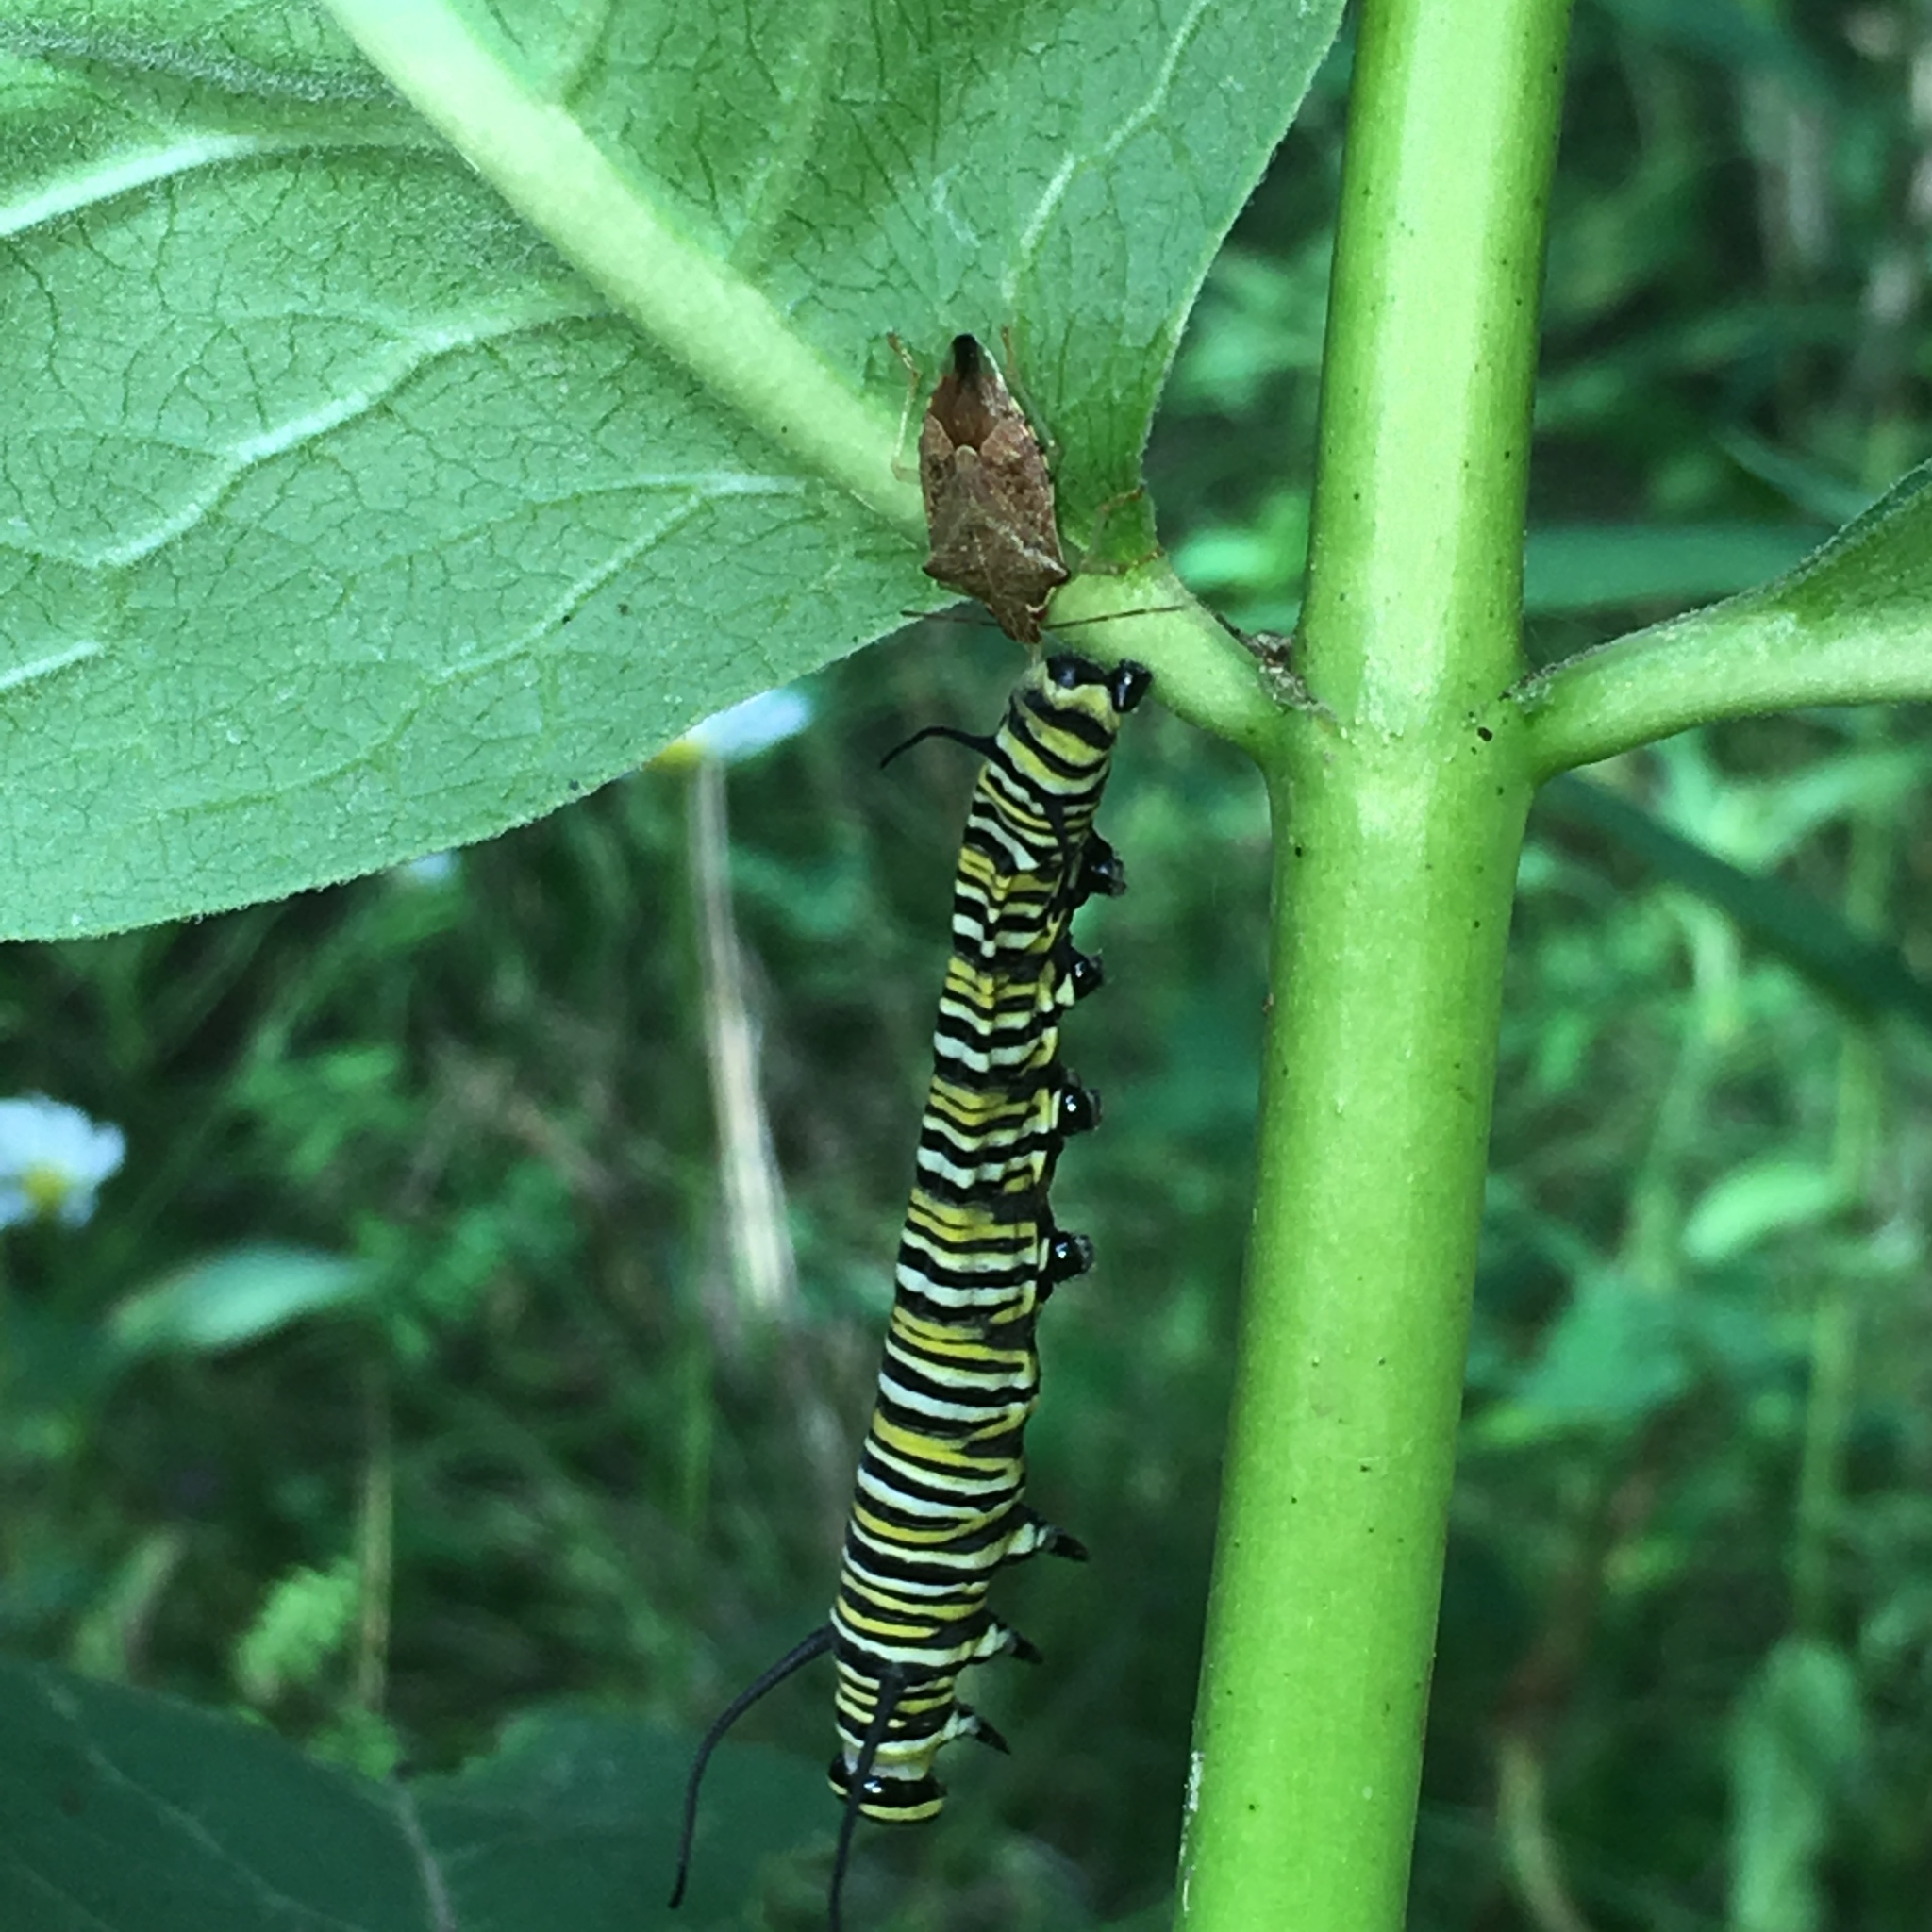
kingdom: Animalia
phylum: Arthropoda
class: Insecta
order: Lepidoptera
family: Nymphalidae
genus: Danaus
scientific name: Danaus plexippus
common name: Monarch
